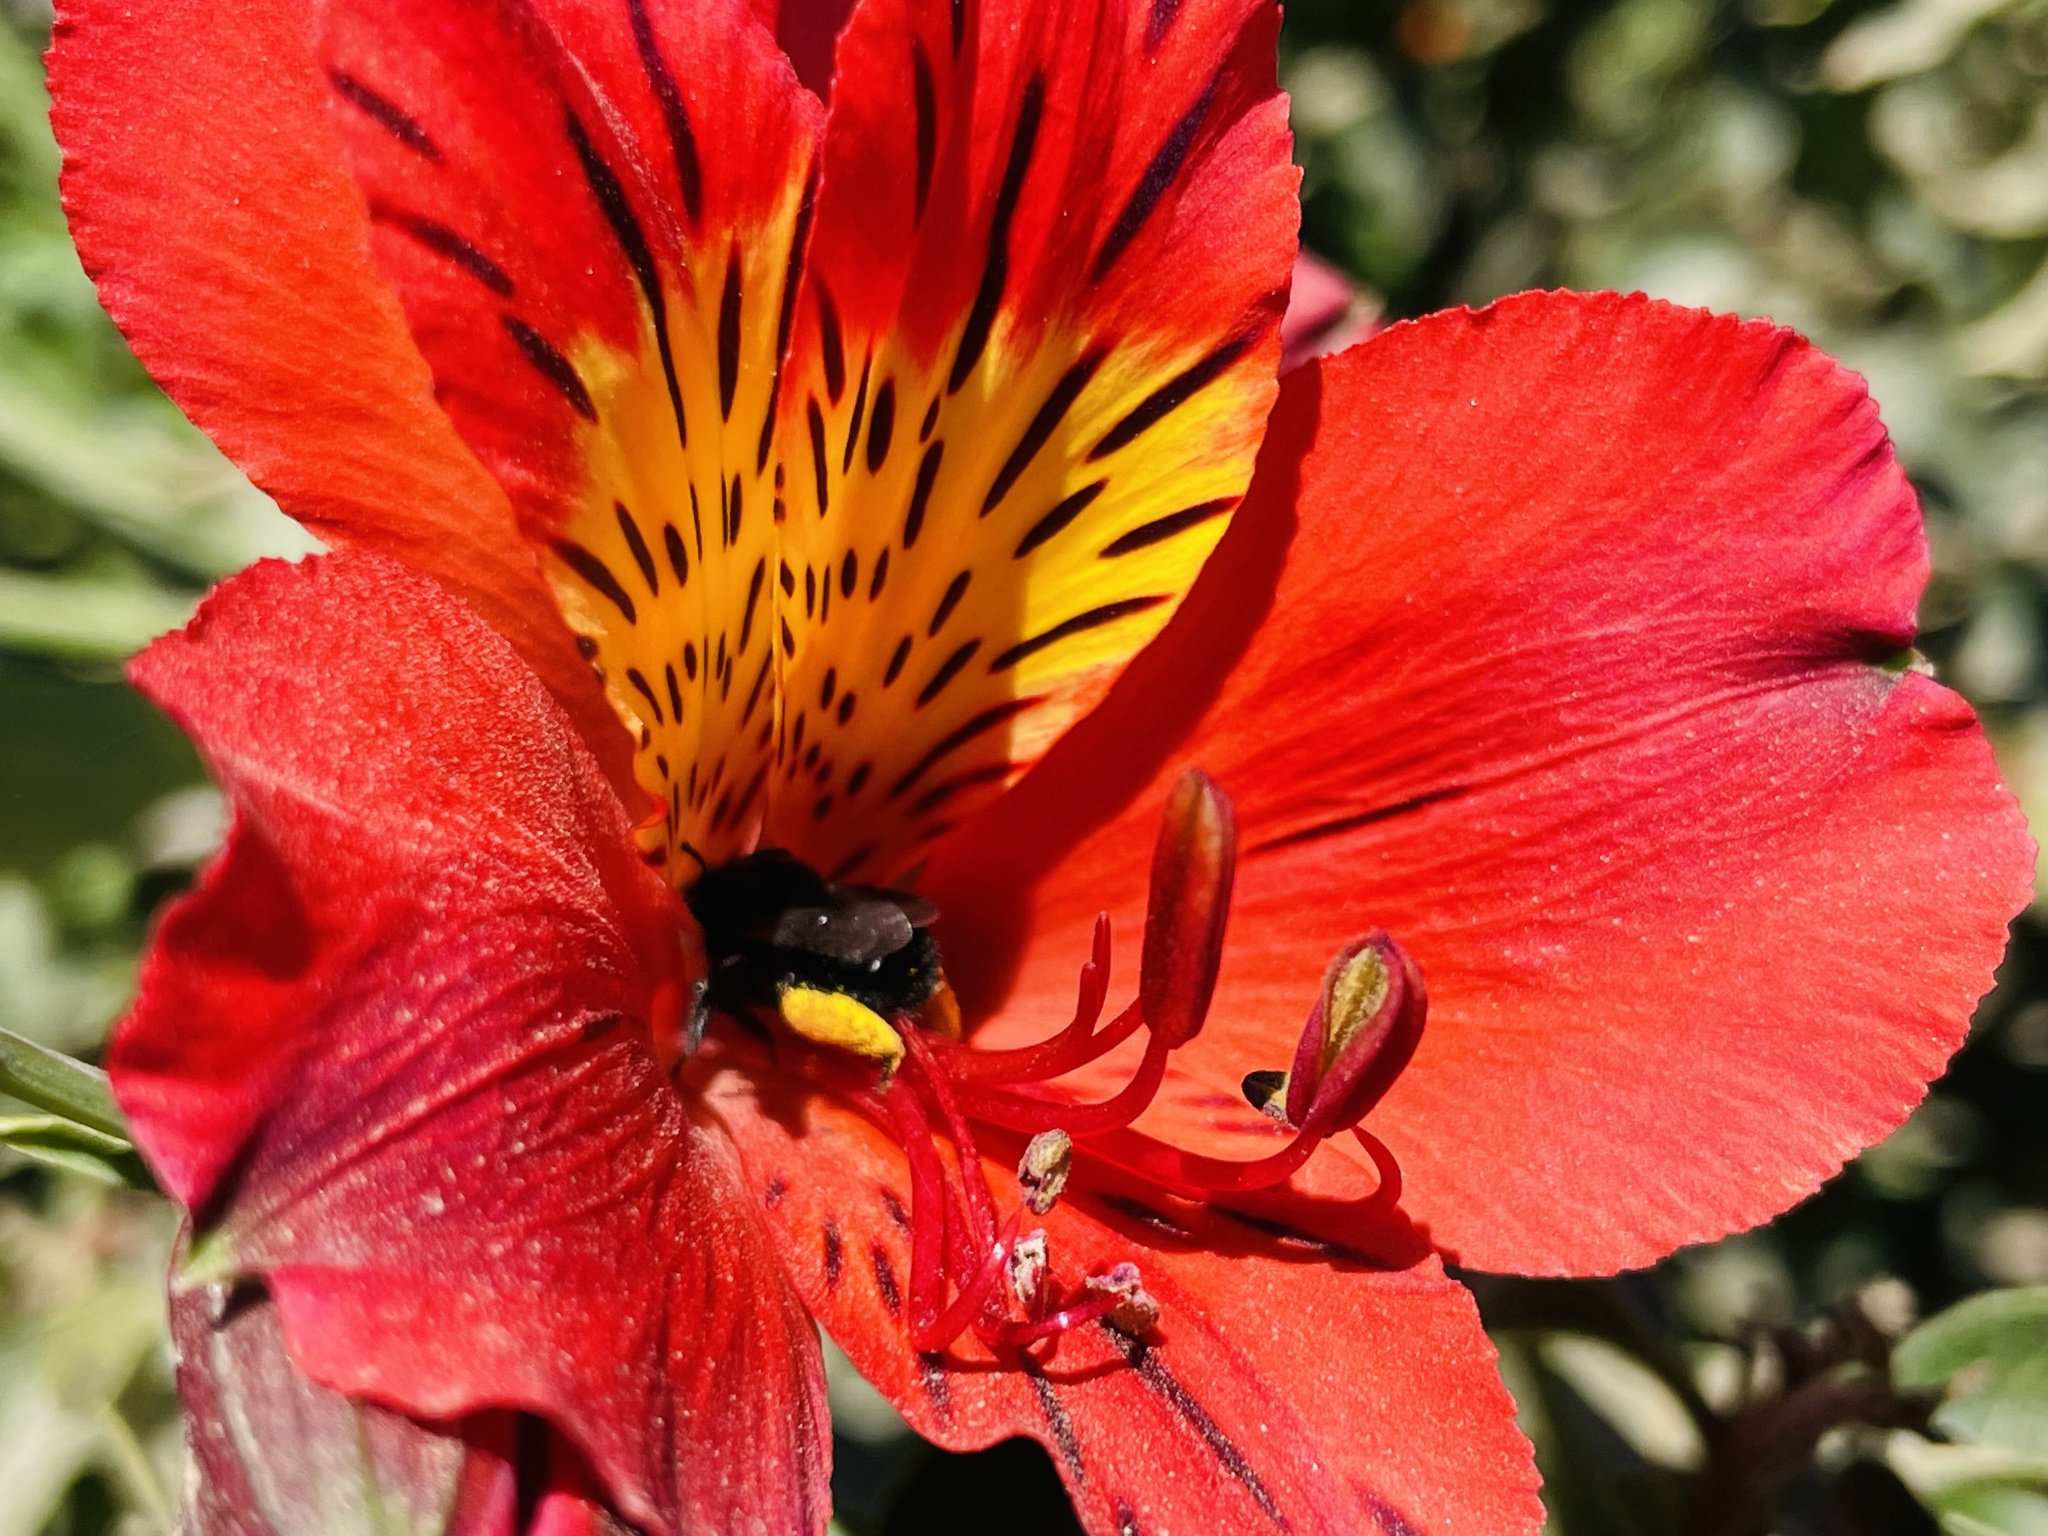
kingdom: Animalia
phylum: Arthropoda
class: Insecta
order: Hymenoptera
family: Apidae
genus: Alloscirtetica
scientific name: Alloscirtetica gayi
